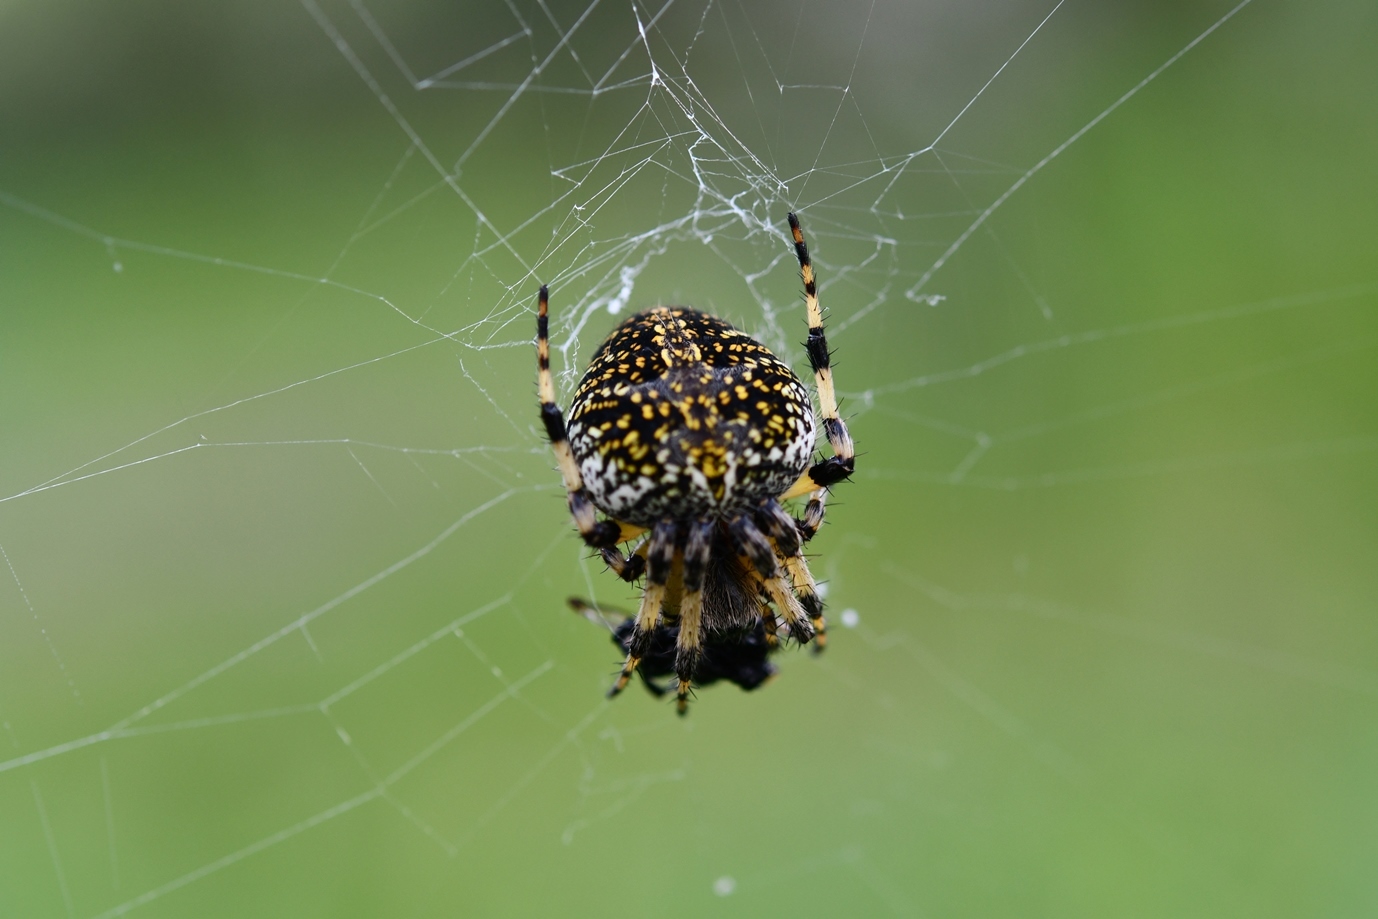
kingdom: Animalia
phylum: Arthropoda
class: Arachnida
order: Araneae
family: Araneidae
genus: Neoscona
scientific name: Neoscona orizabensis
